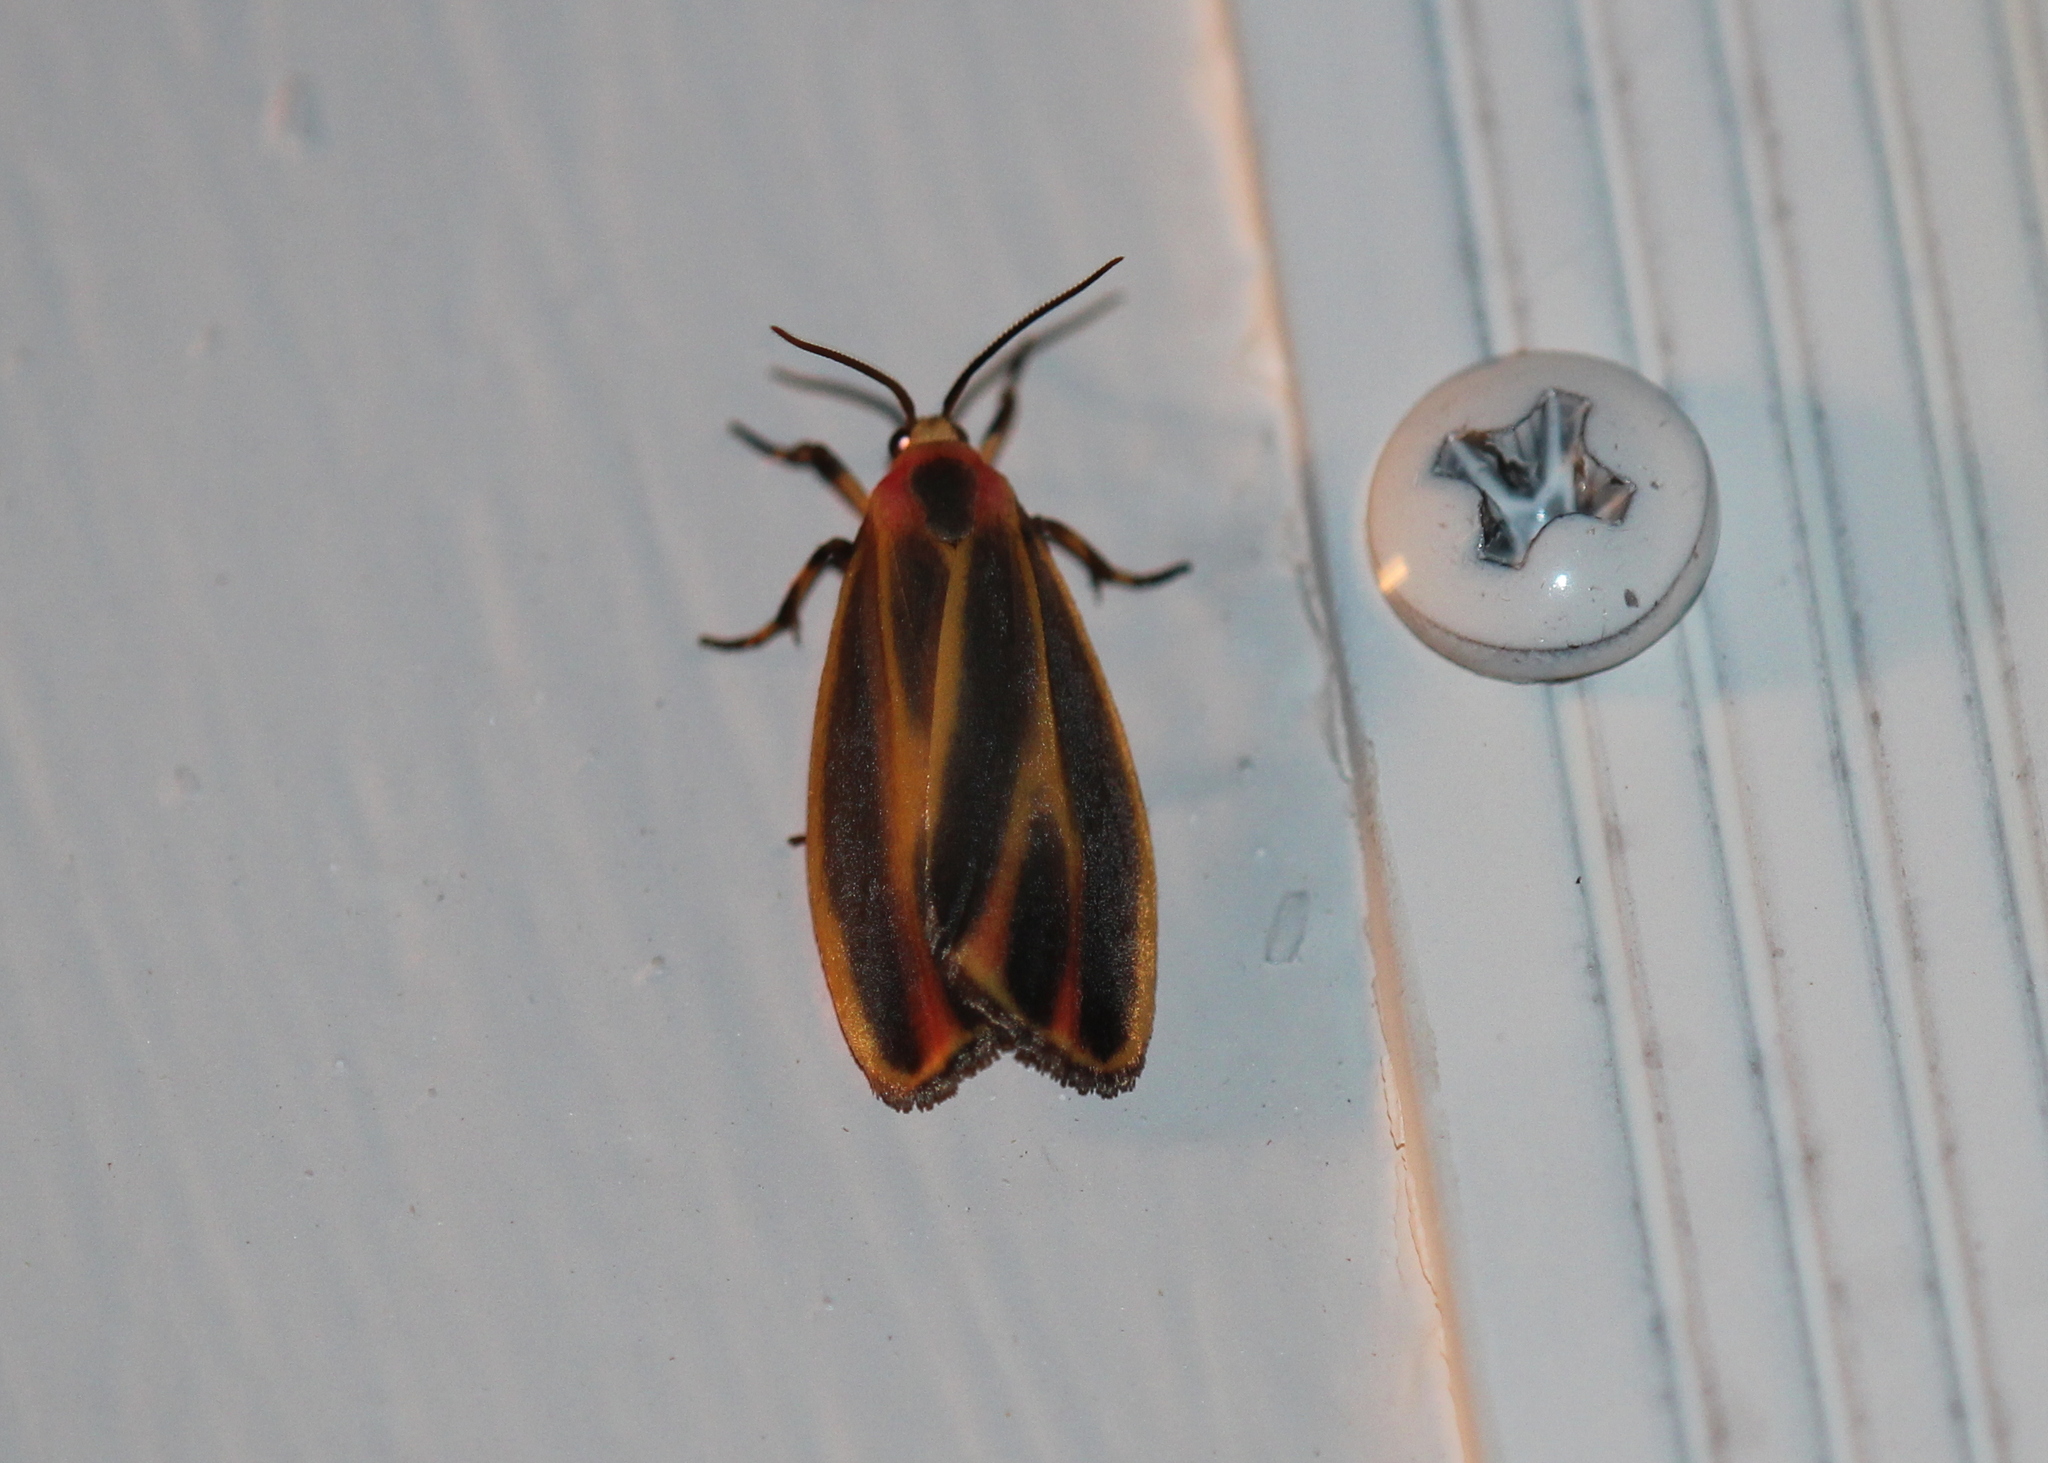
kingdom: Animalia
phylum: Arthropoda
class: Insecta
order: Lepidoptera
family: Erebidae
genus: Hypoprepia
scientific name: Hypoprepia fucosa
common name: Painted lichen moth
